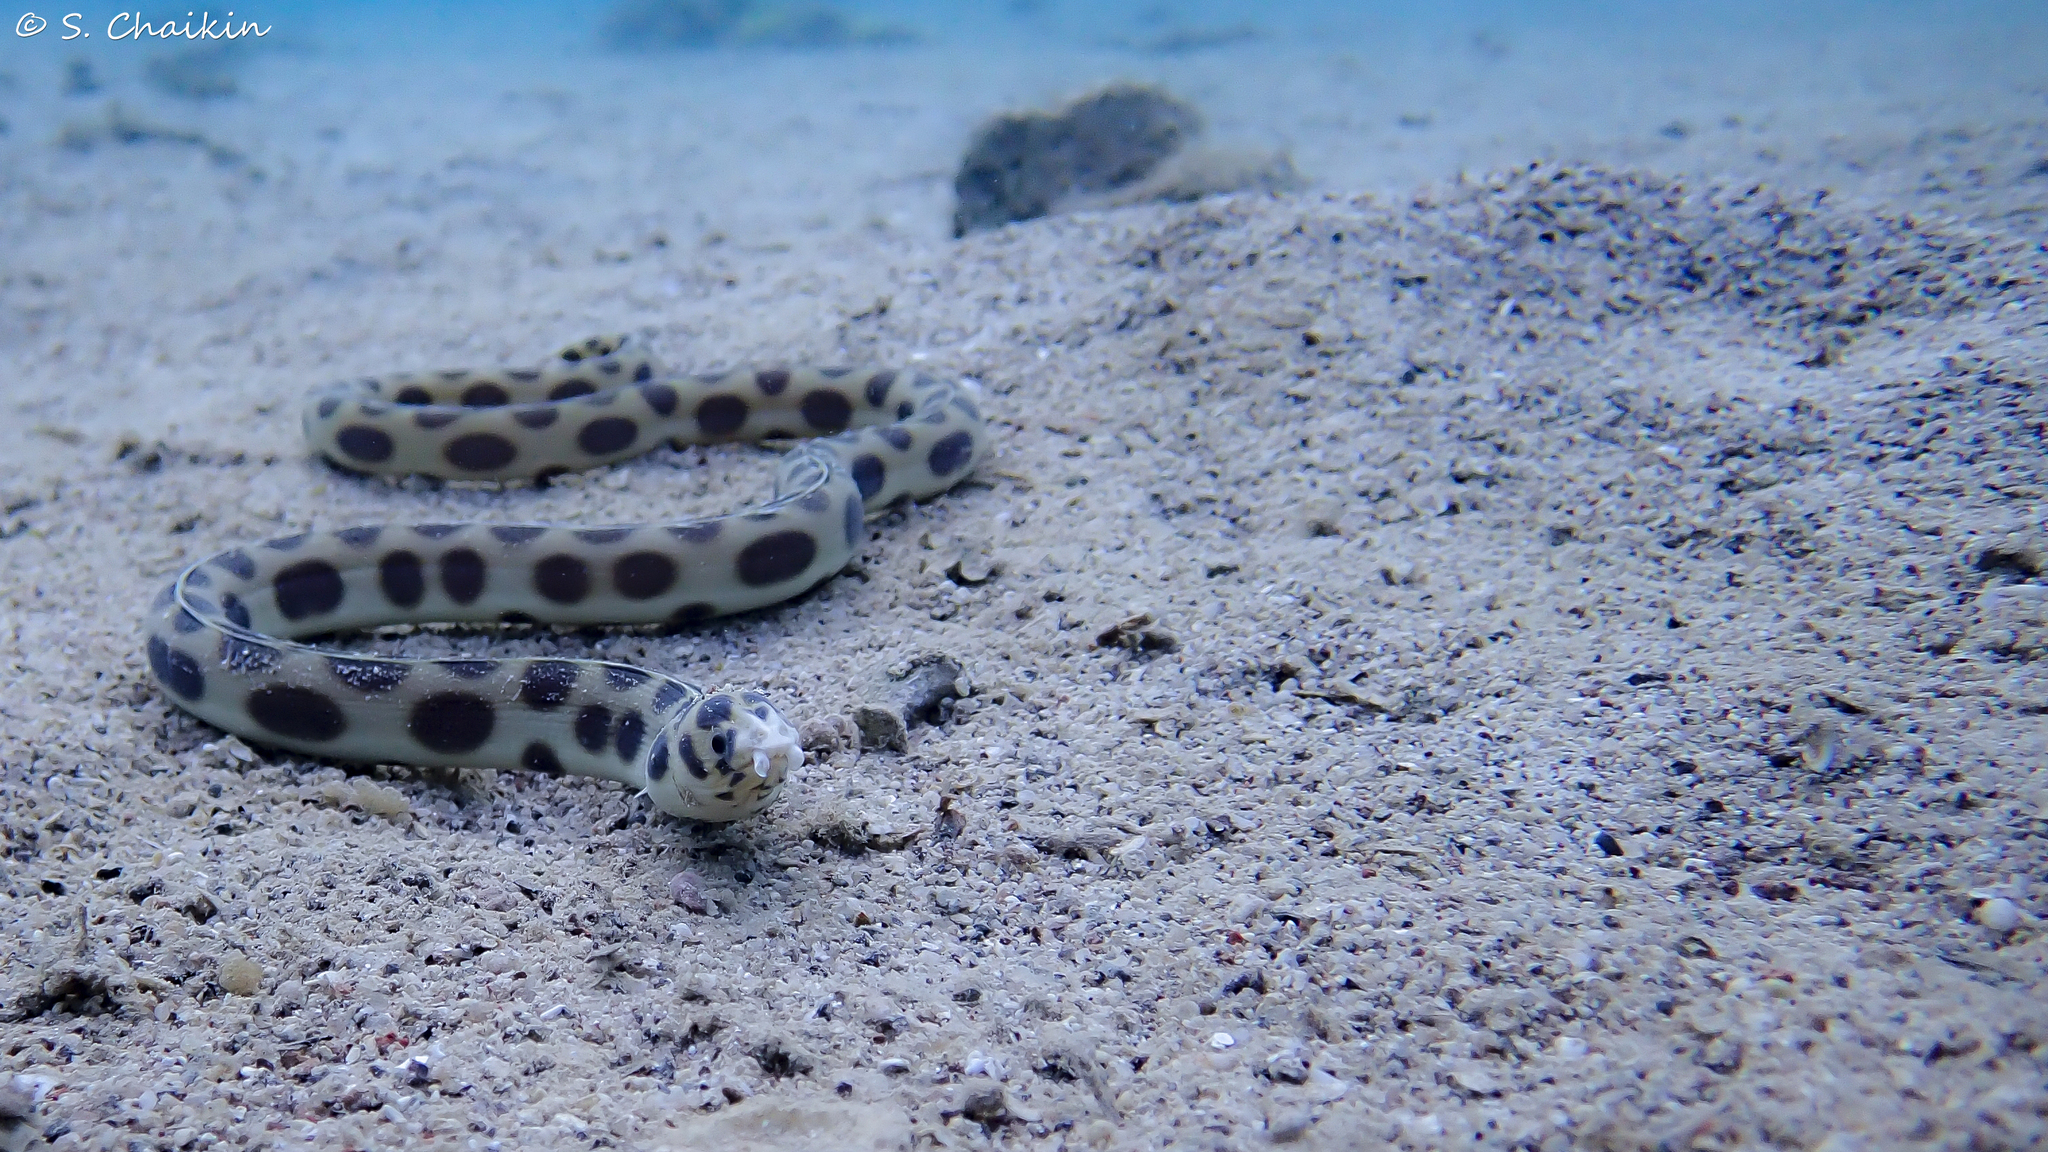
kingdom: Animalia
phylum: Chordata
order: Anguilliformes
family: Ophichthidae
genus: Myrichthys
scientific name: Myrichthys maculosus
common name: Spotted snake eel
